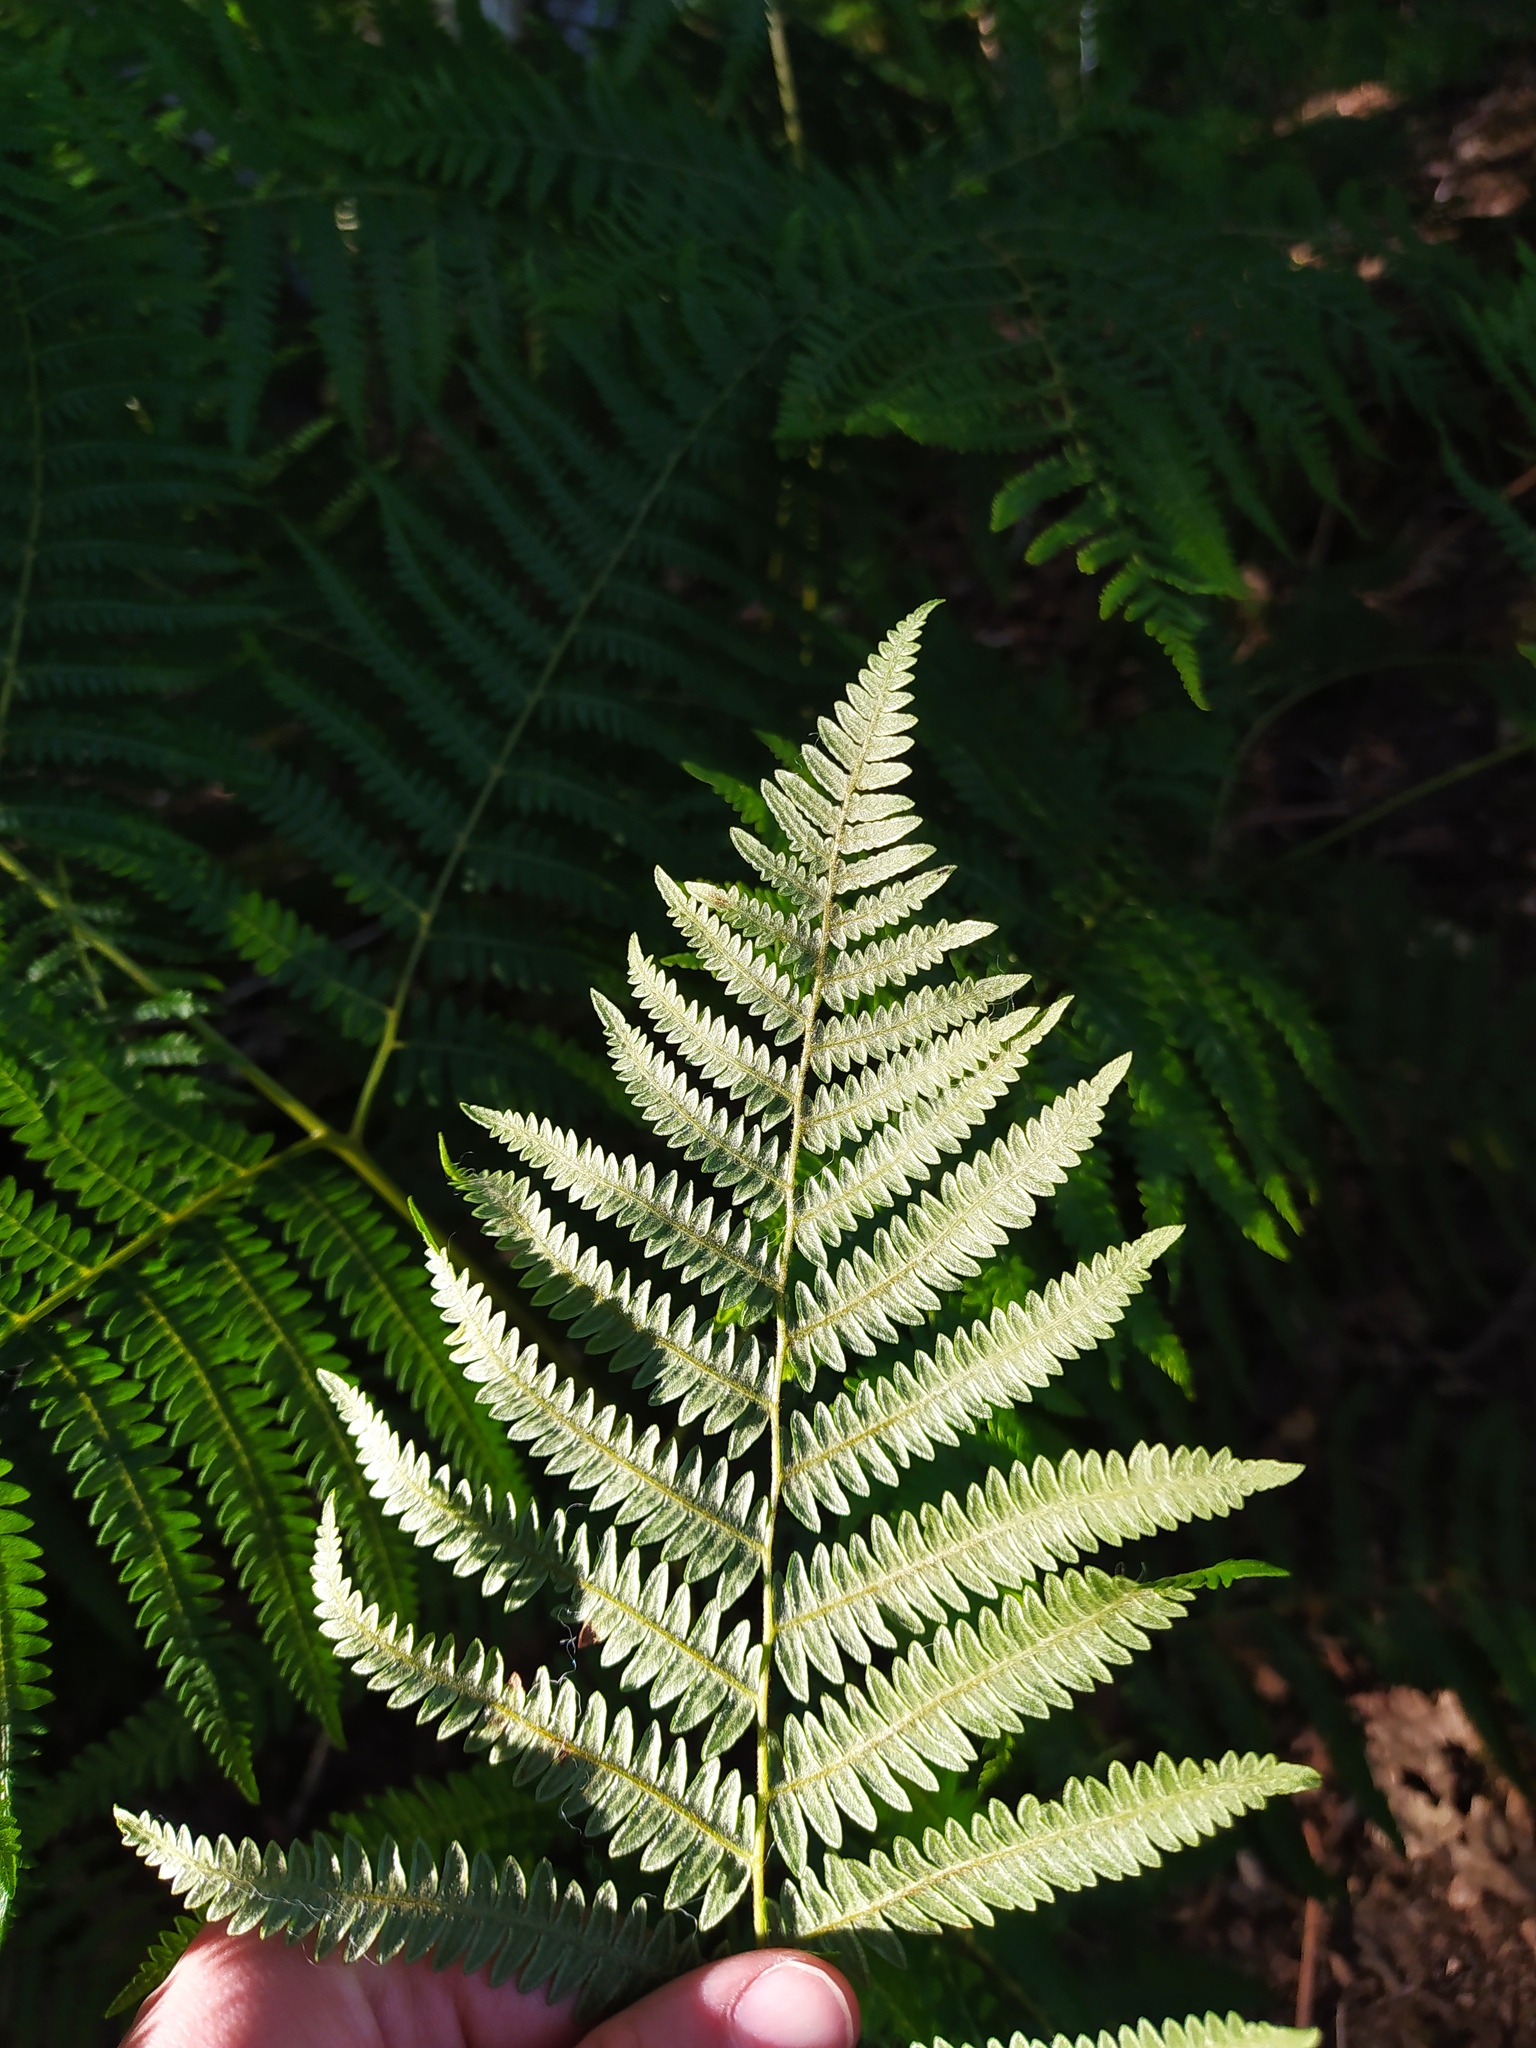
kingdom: Plantae
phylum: Tracheophyta
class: Polypodiopsida
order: Polypodiales
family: Dennstaedtiaceae
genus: Pteridium
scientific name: Pteridium aquilinum
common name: Bracken
